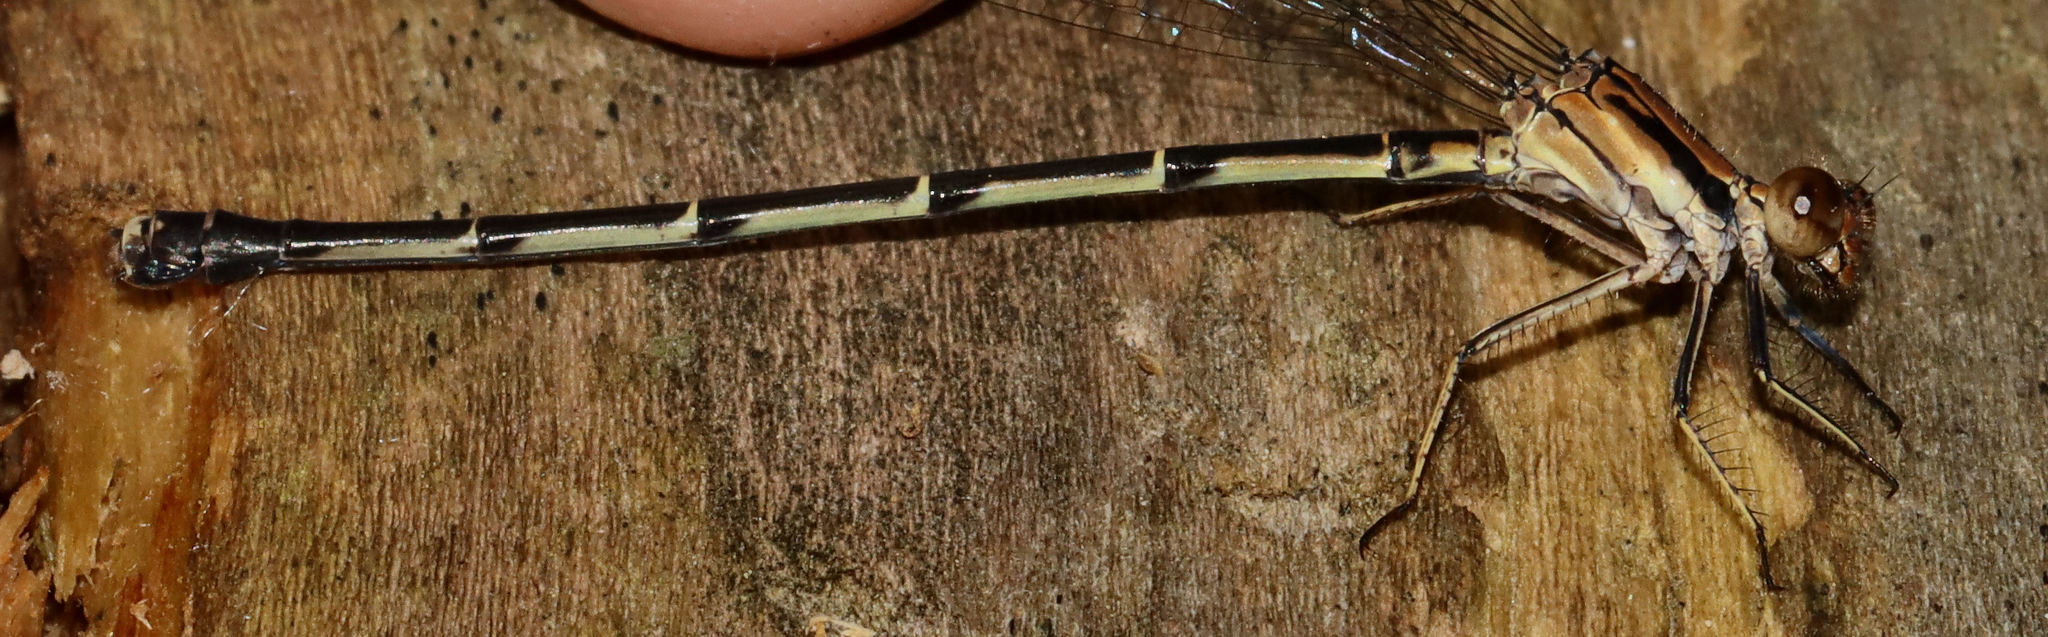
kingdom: Animalia
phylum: Arthropoda
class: Insecta
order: Odonata
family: Coenagrionidae
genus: Argia
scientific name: Argia tibialis
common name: Blue-tipped dancer
